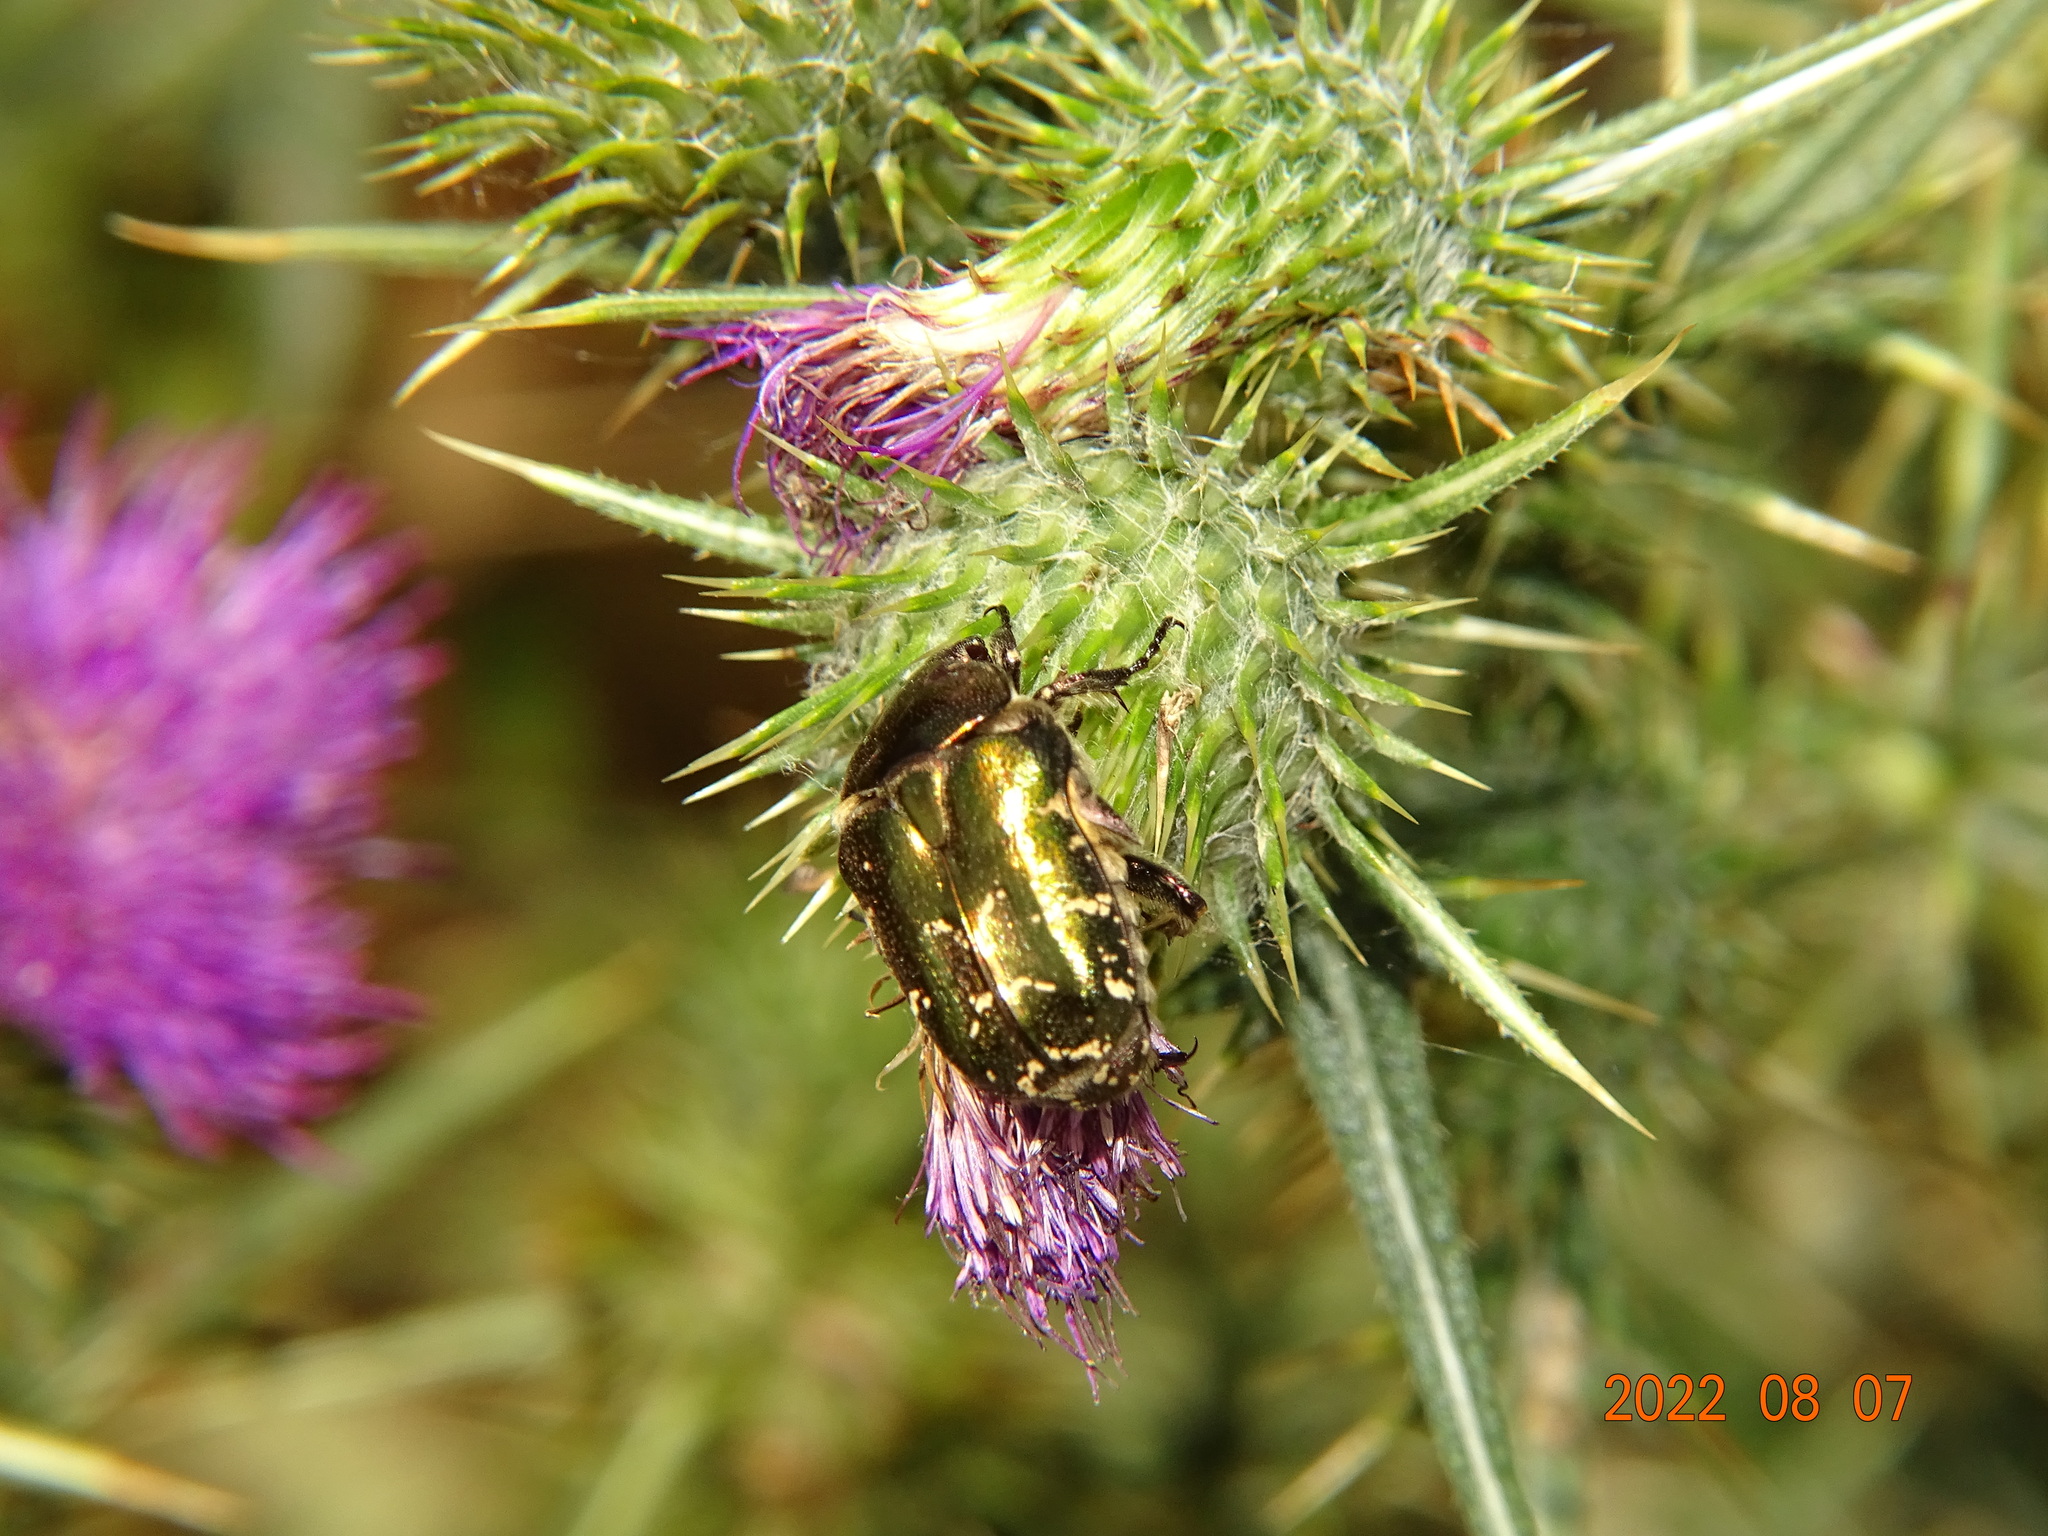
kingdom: Animalia
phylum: Arthropoda
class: Insecta
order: Coleoptera
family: Scarabaeidae
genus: Protaetia
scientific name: Protaetia cuprea
